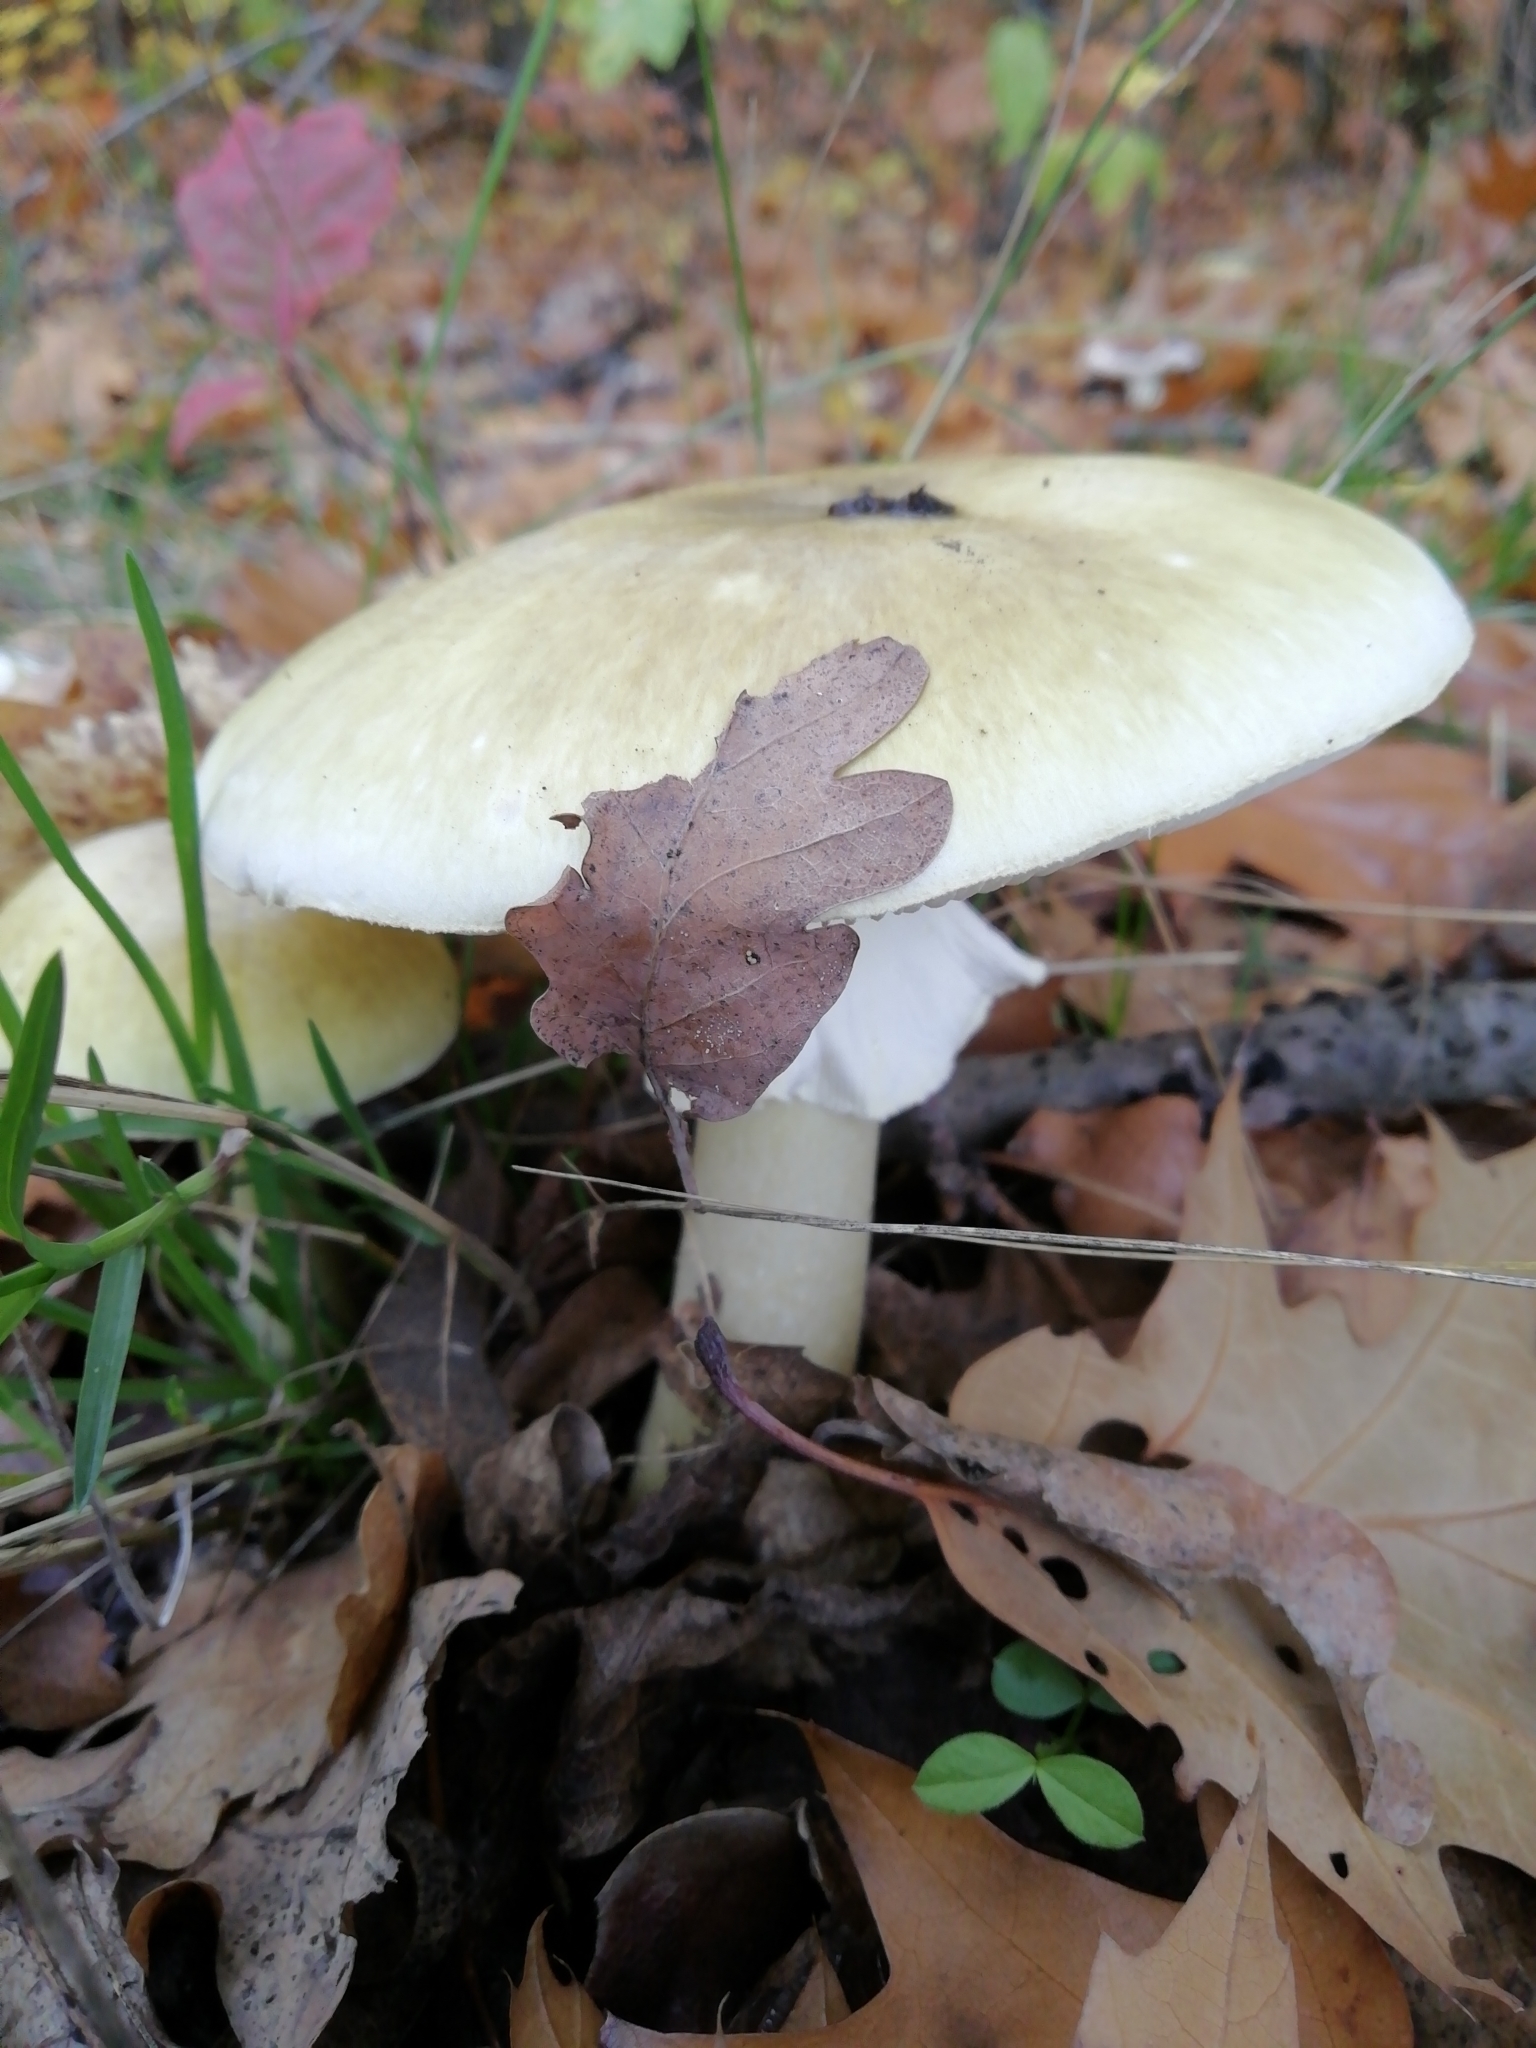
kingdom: Fungi
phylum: Basidiomycota
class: Agaricomycetes
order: Agaricales
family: Amanitaceae
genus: Amanita
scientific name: Amanita phalloides
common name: Death cap
